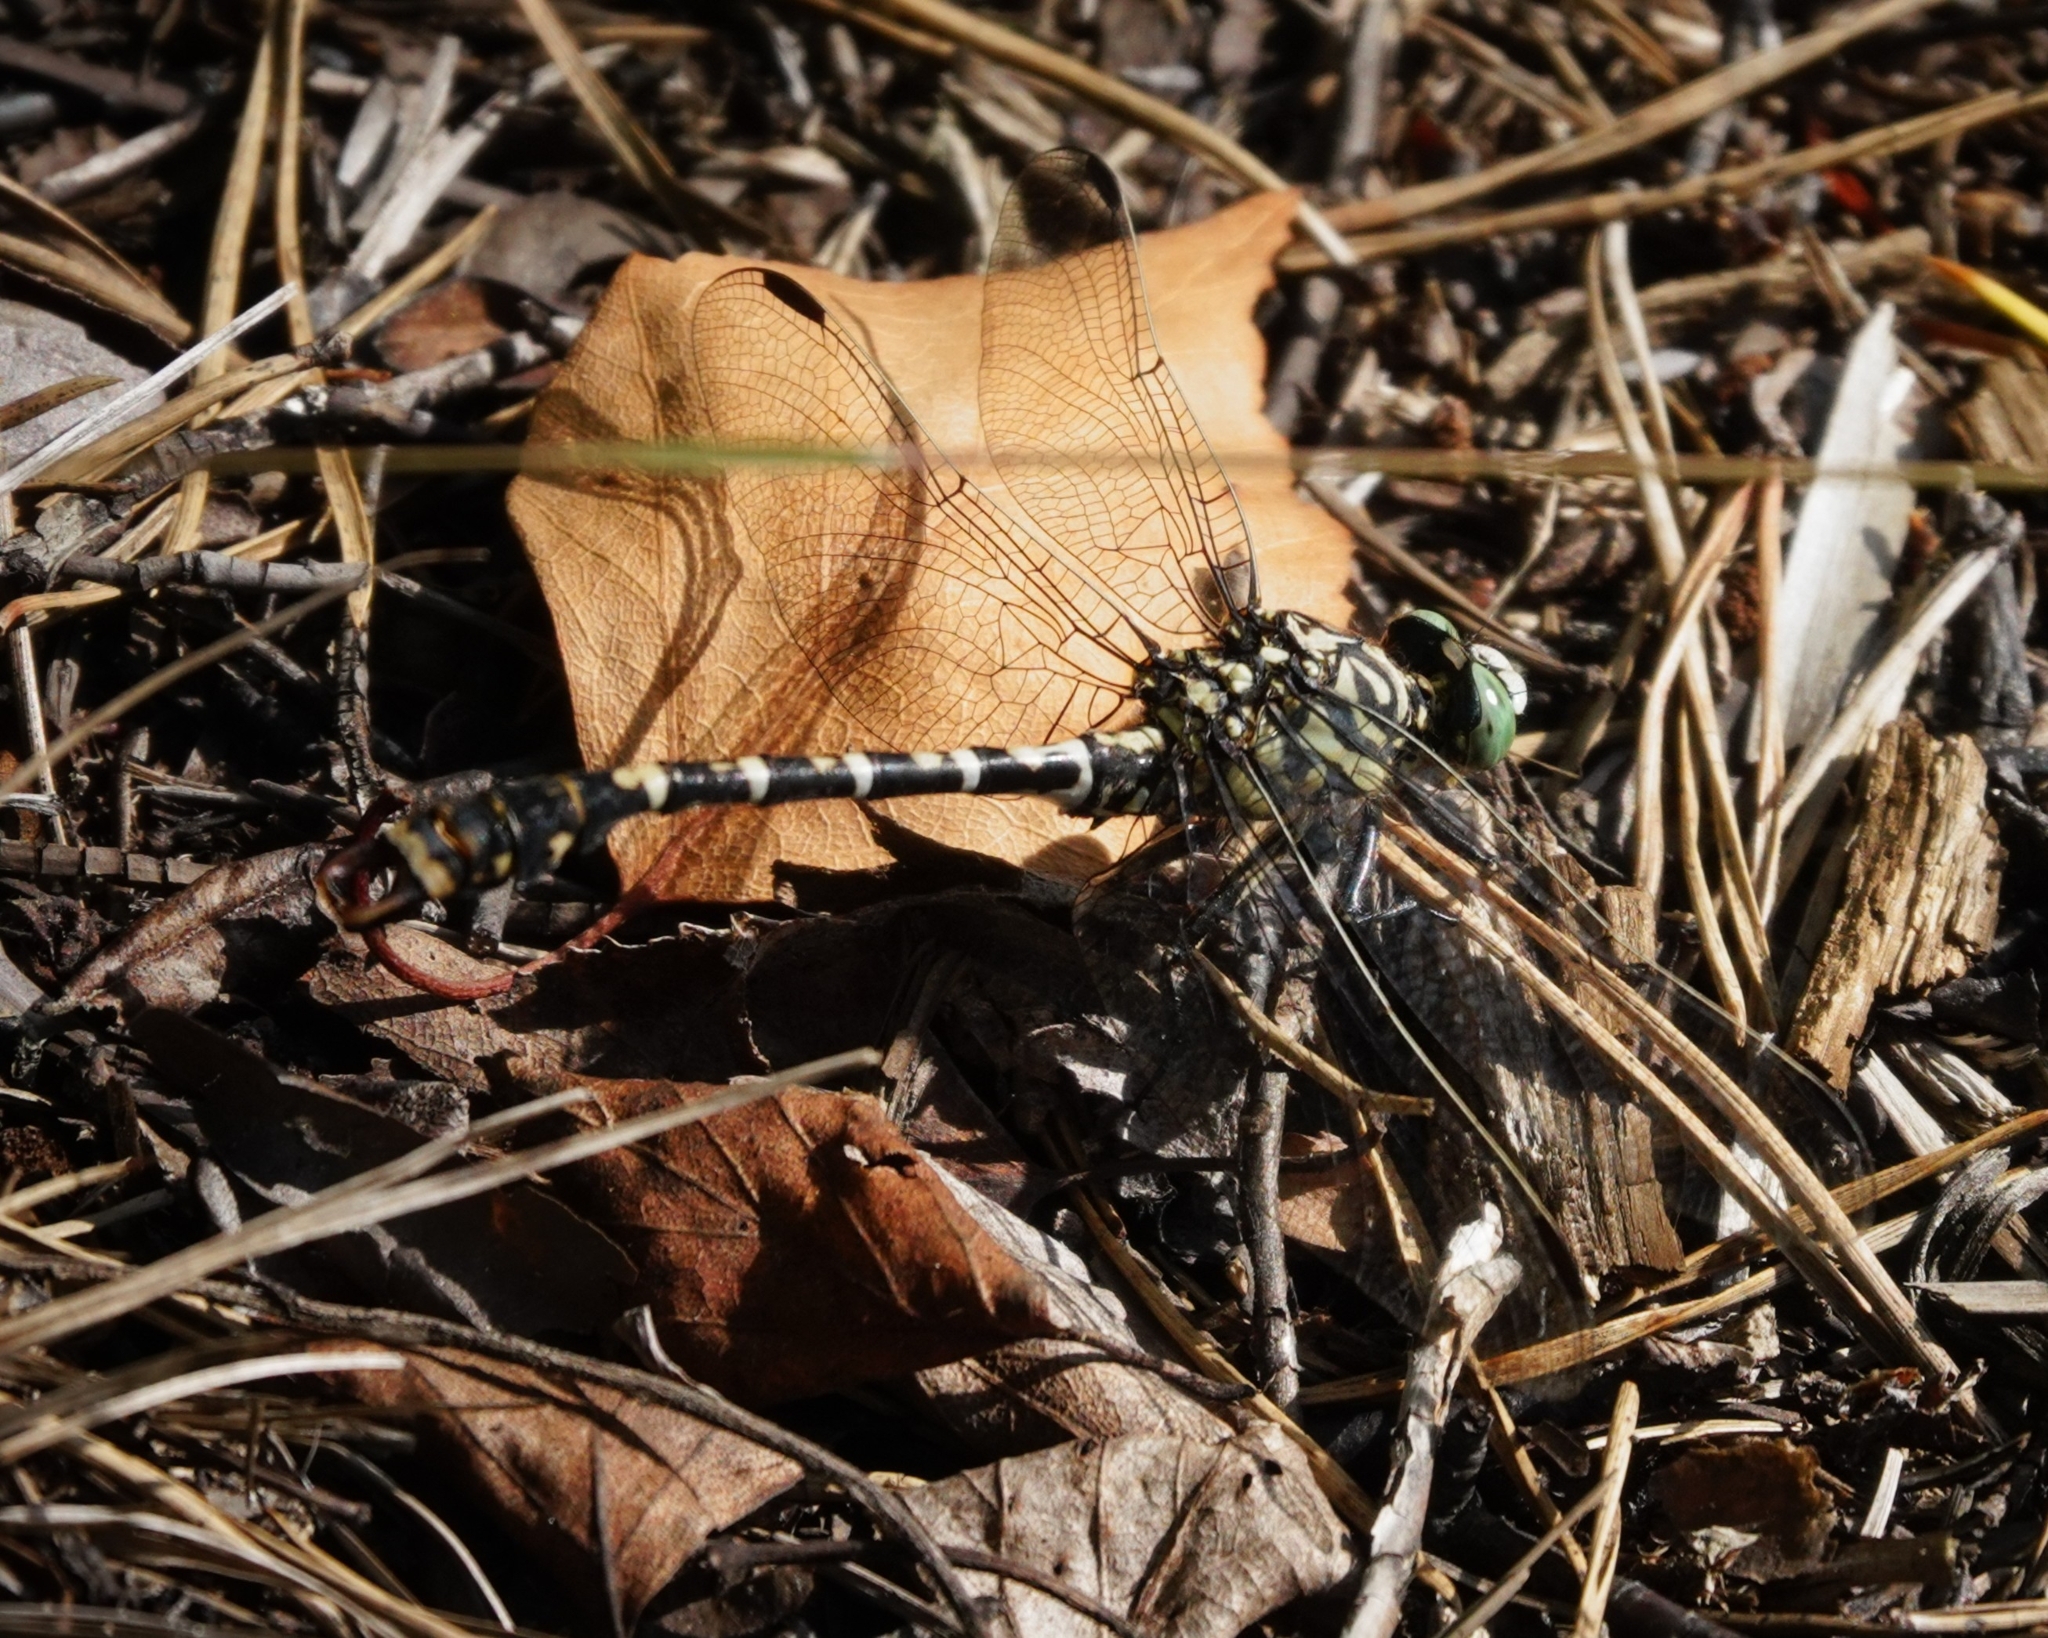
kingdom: Animalia
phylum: Arthropoda
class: Insecta
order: Odonata
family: Gomphidae
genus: Onychogomphus
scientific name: Onychogomphus forcipatus
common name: Small pincertail
